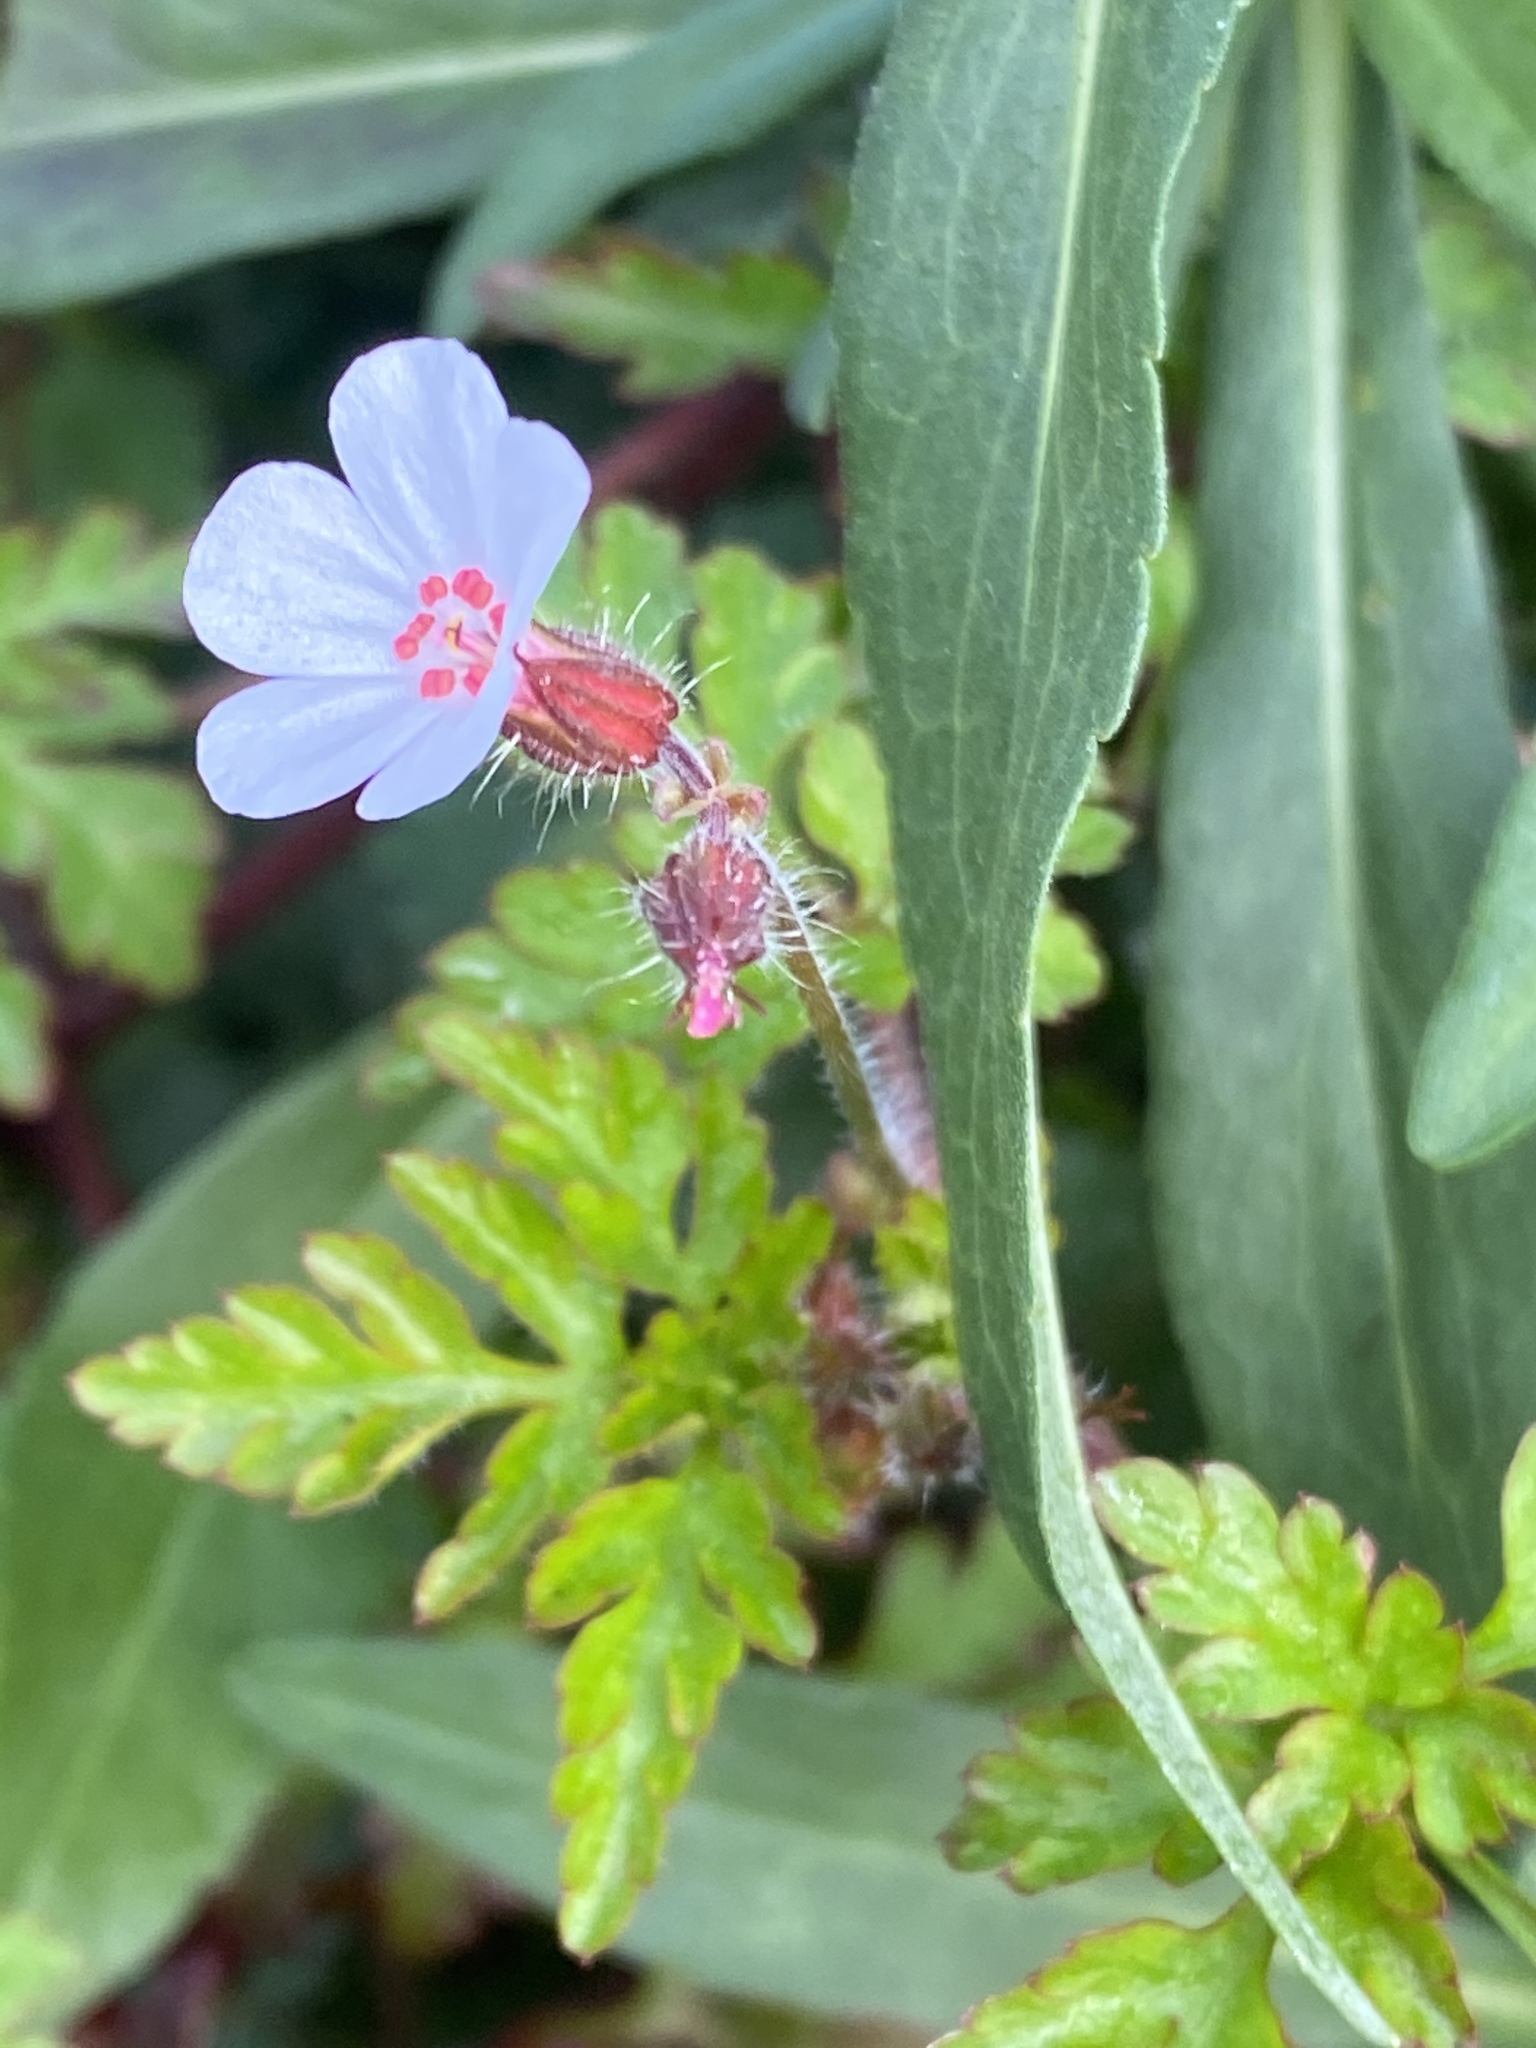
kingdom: Plantae
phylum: Tracheophyta
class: Magnoliopsida
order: Geraniales
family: Geraniaceae
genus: Geranium
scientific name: Geranium robertianum
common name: Herb-robert
